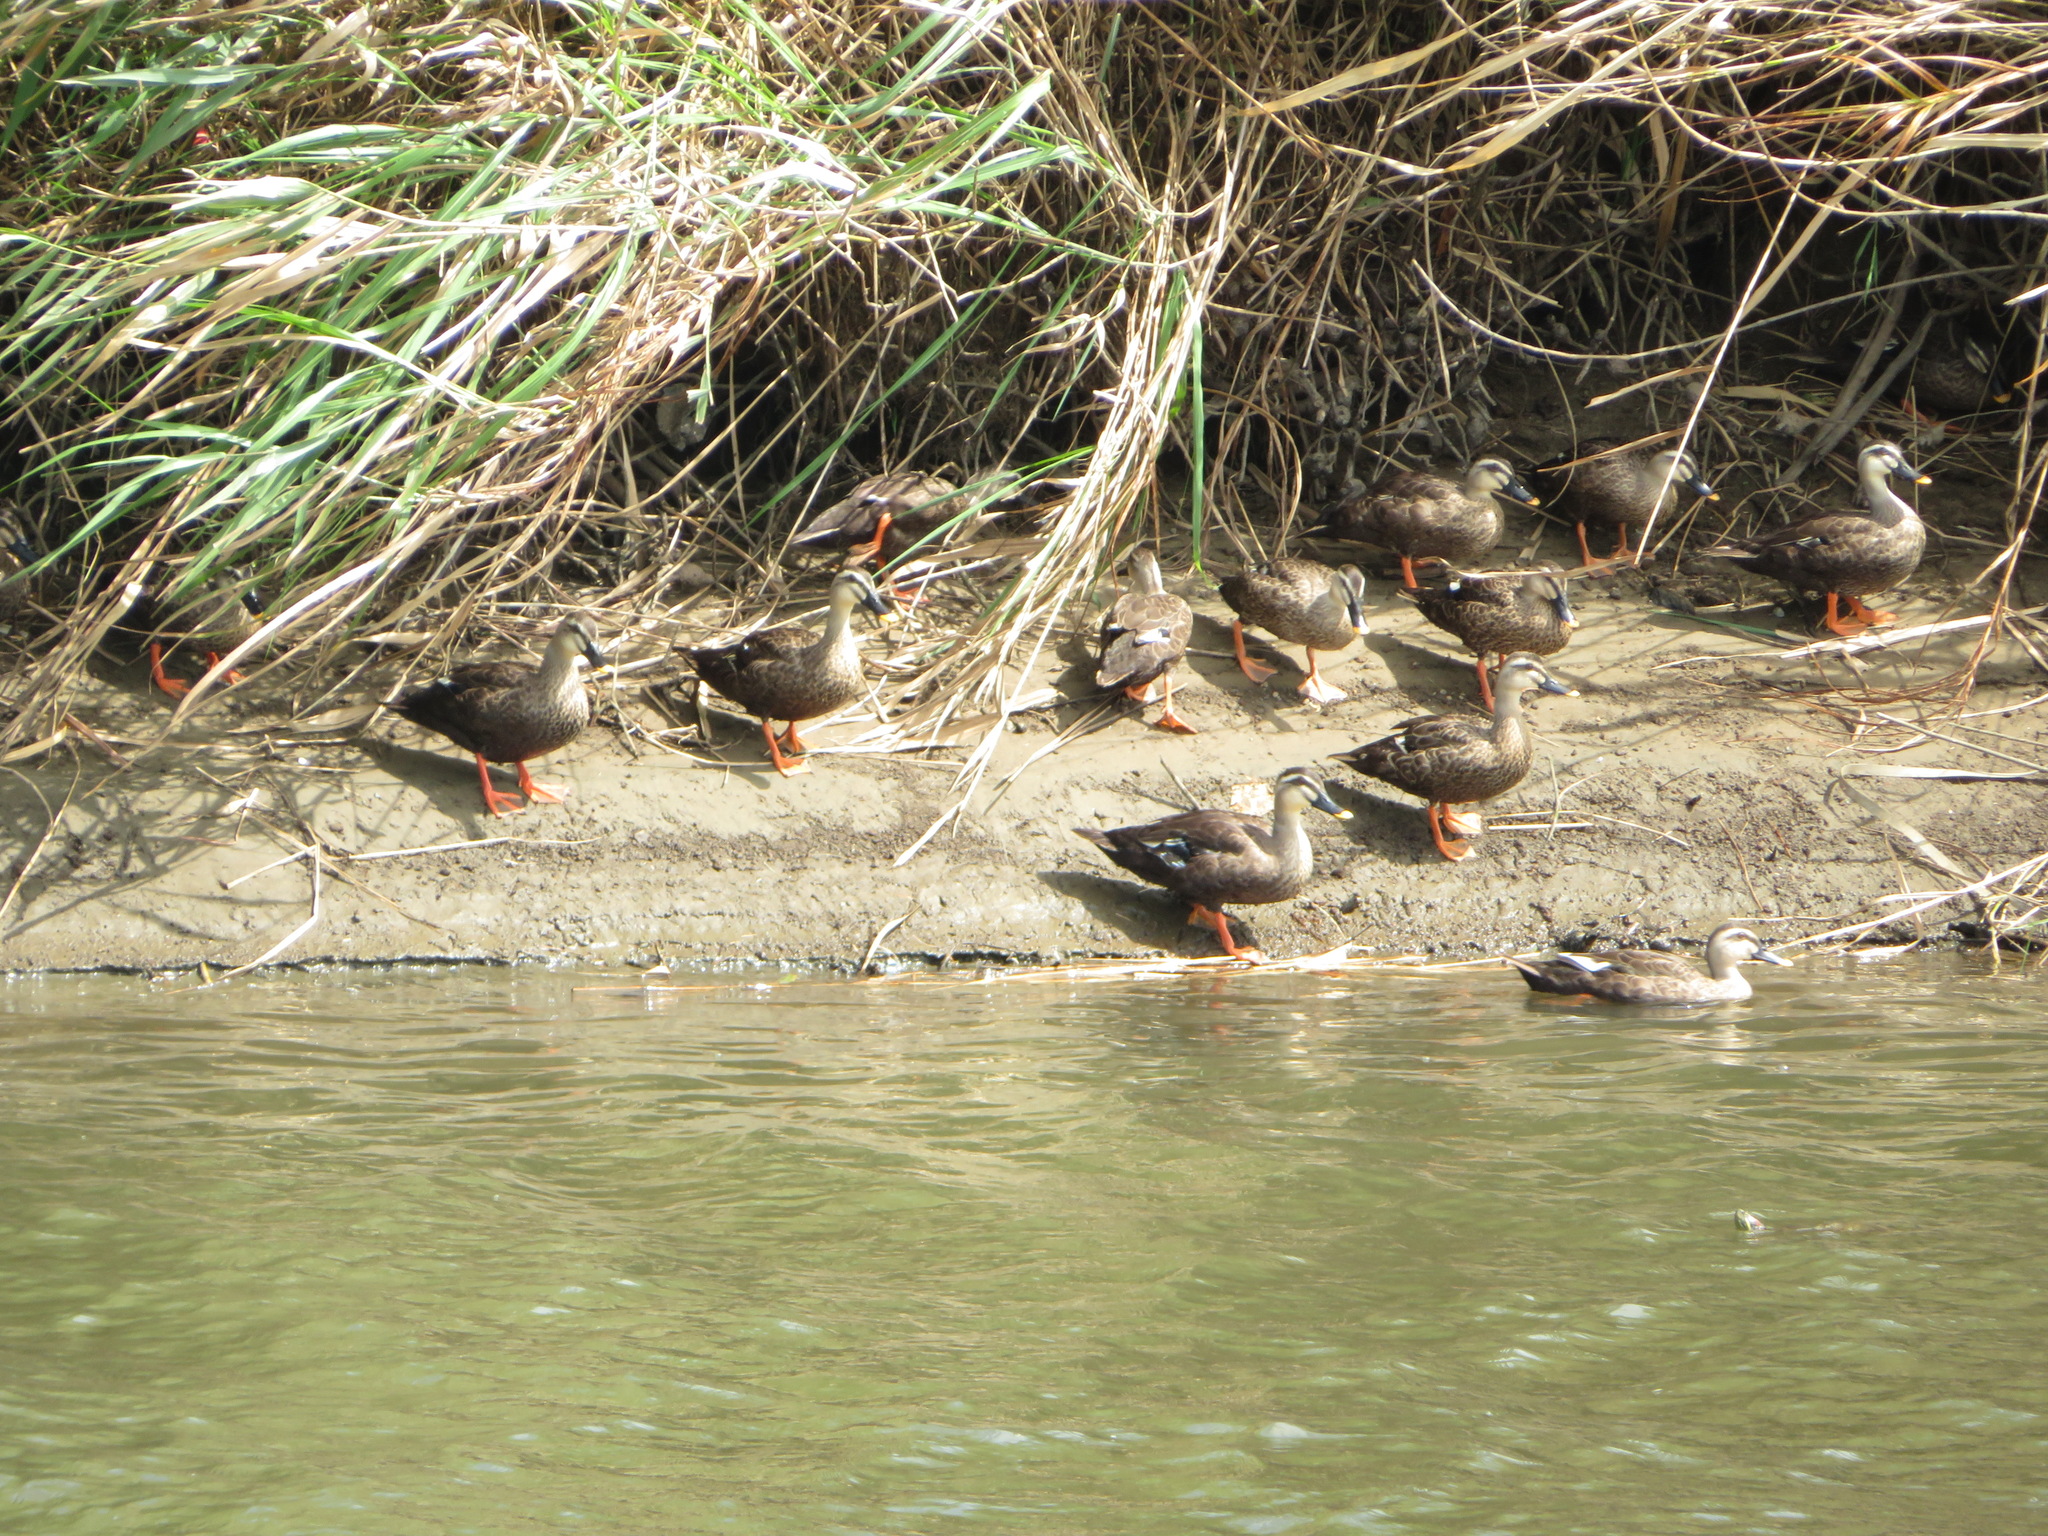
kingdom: Animalia
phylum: Chordata
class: Aves
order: Anseriformes
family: Anatidae
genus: Anas
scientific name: Anas zonorhyncha
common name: Eastern spot-billed duck
